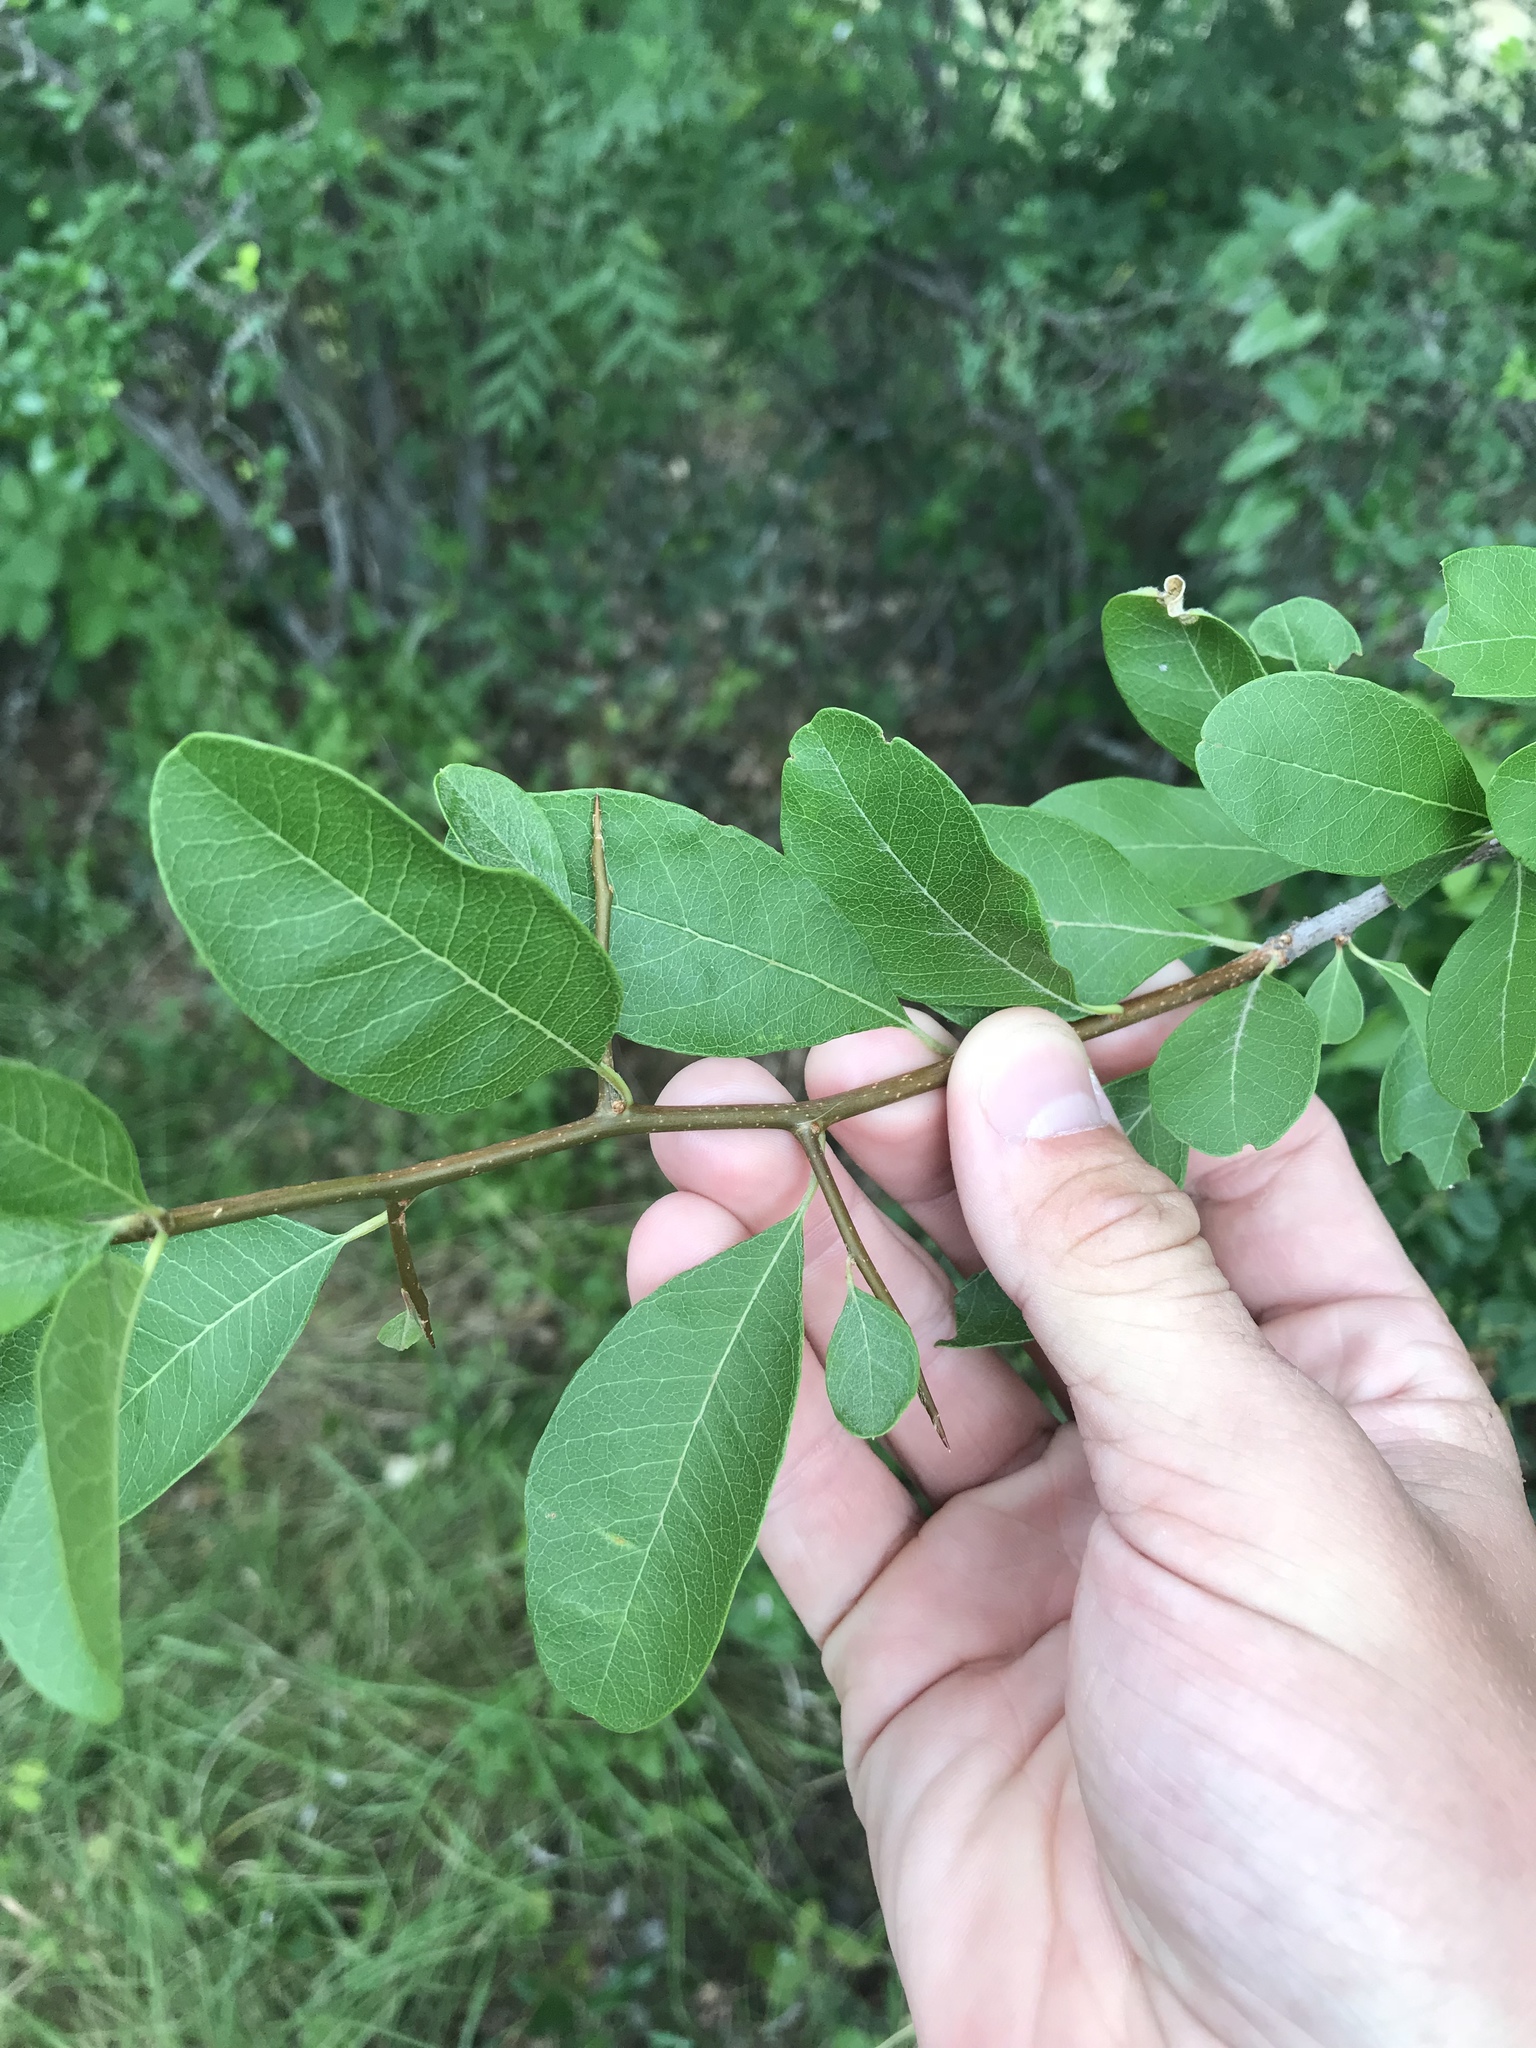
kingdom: Plantae
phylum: Tracheophyta
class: Magnoliopsida
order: Ericales
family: Sapotaceae
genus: Sideroxylon
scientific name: Sideroxylon lanuginosum
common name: Chittamwood
